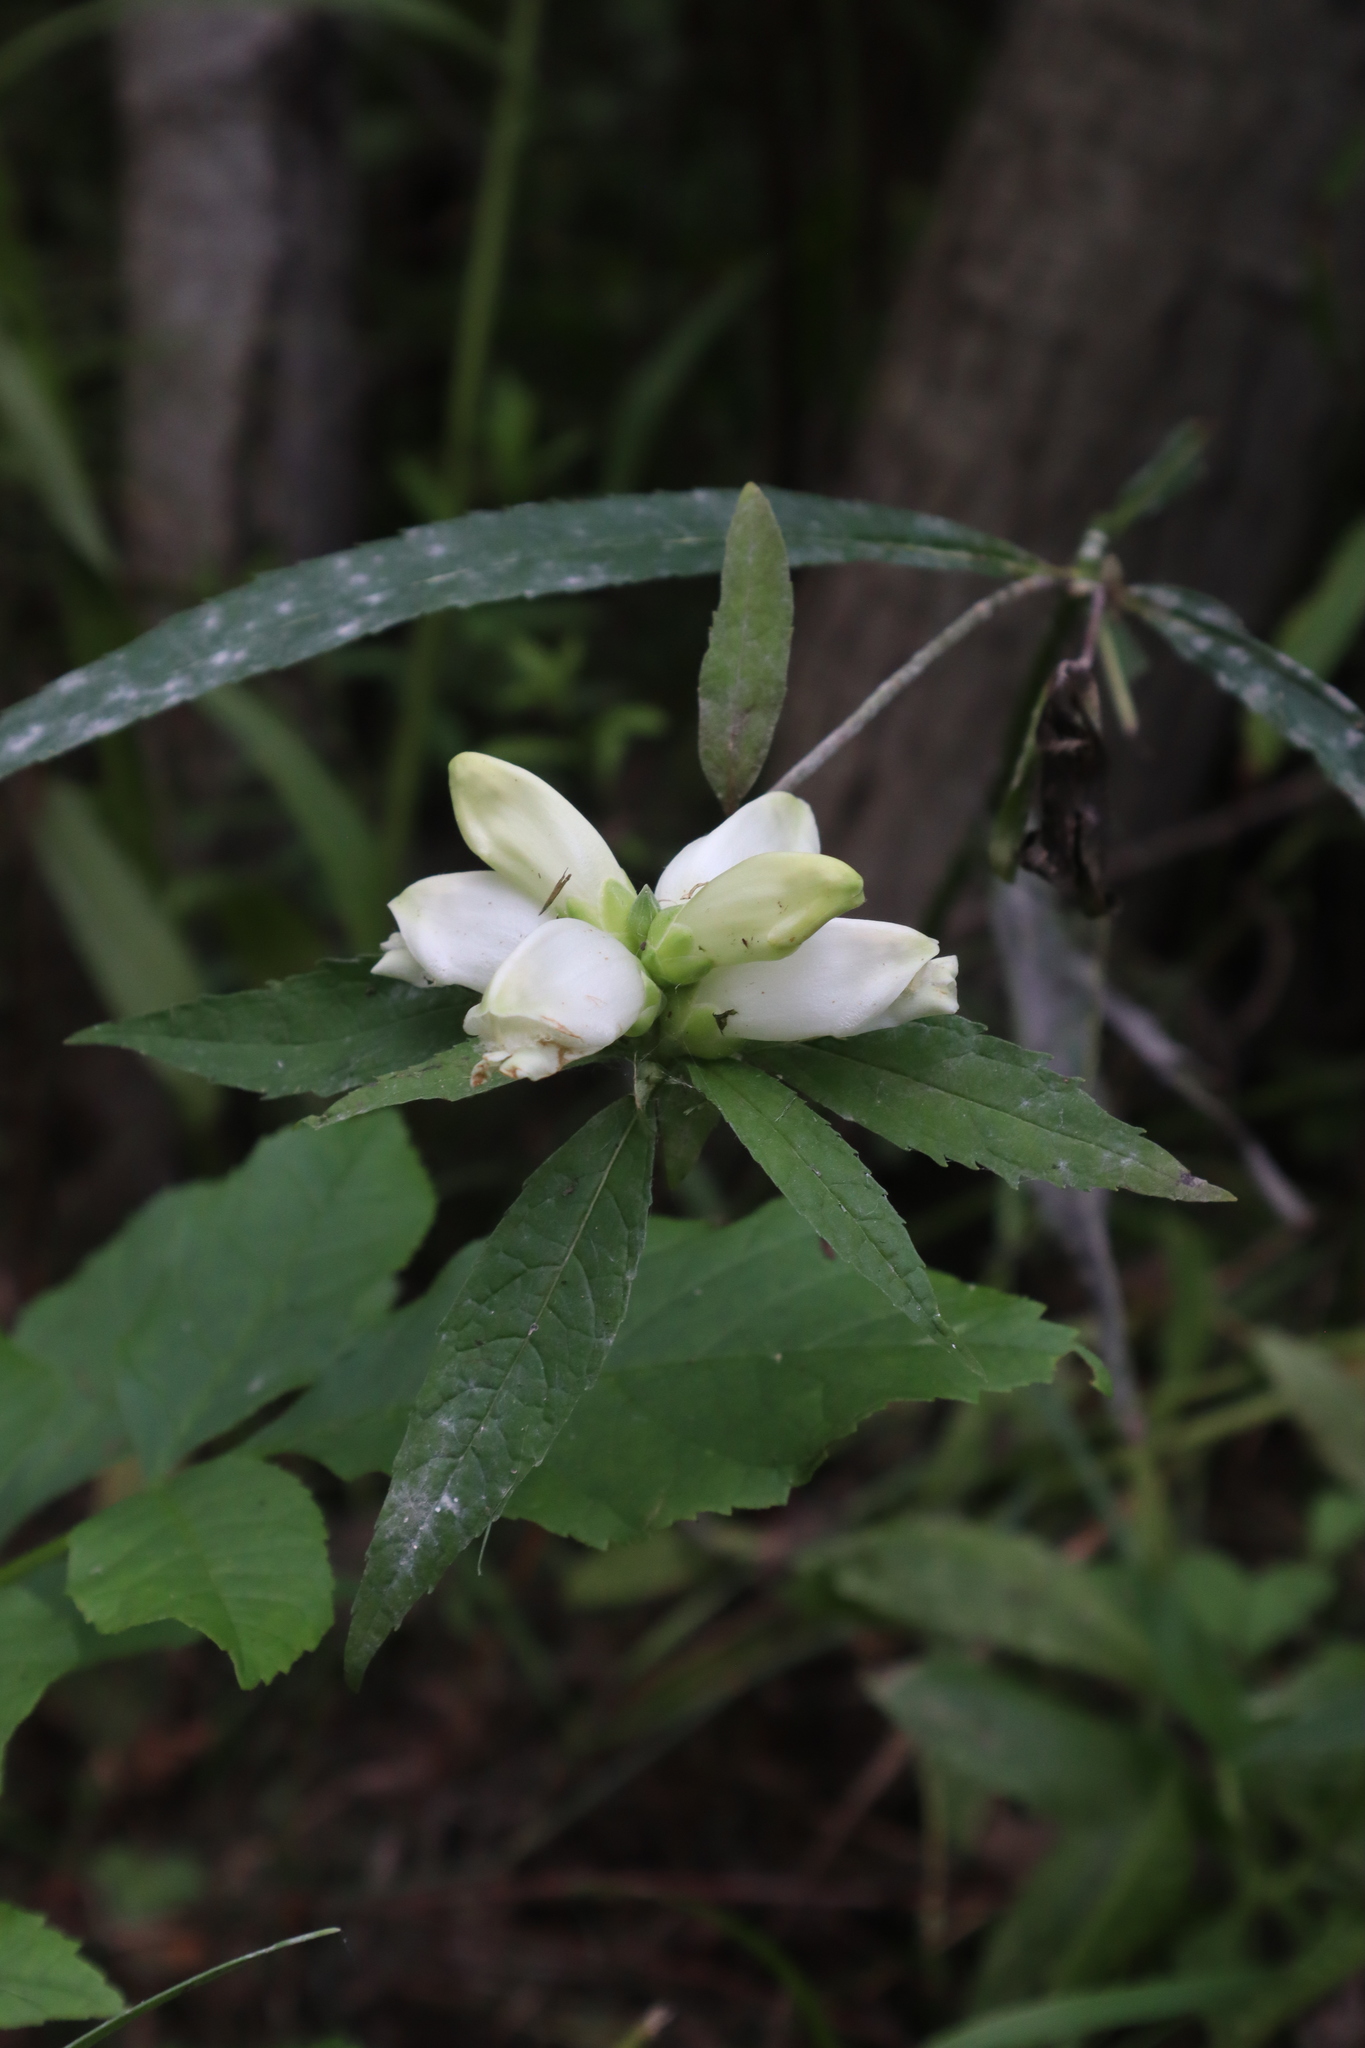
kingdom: Plantae
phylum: Tracheophyta
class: Magnoliopsida
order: Lamiales
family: Plantaginaceae
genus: Chelone
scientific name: Chelone glabra
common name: Snakehead
